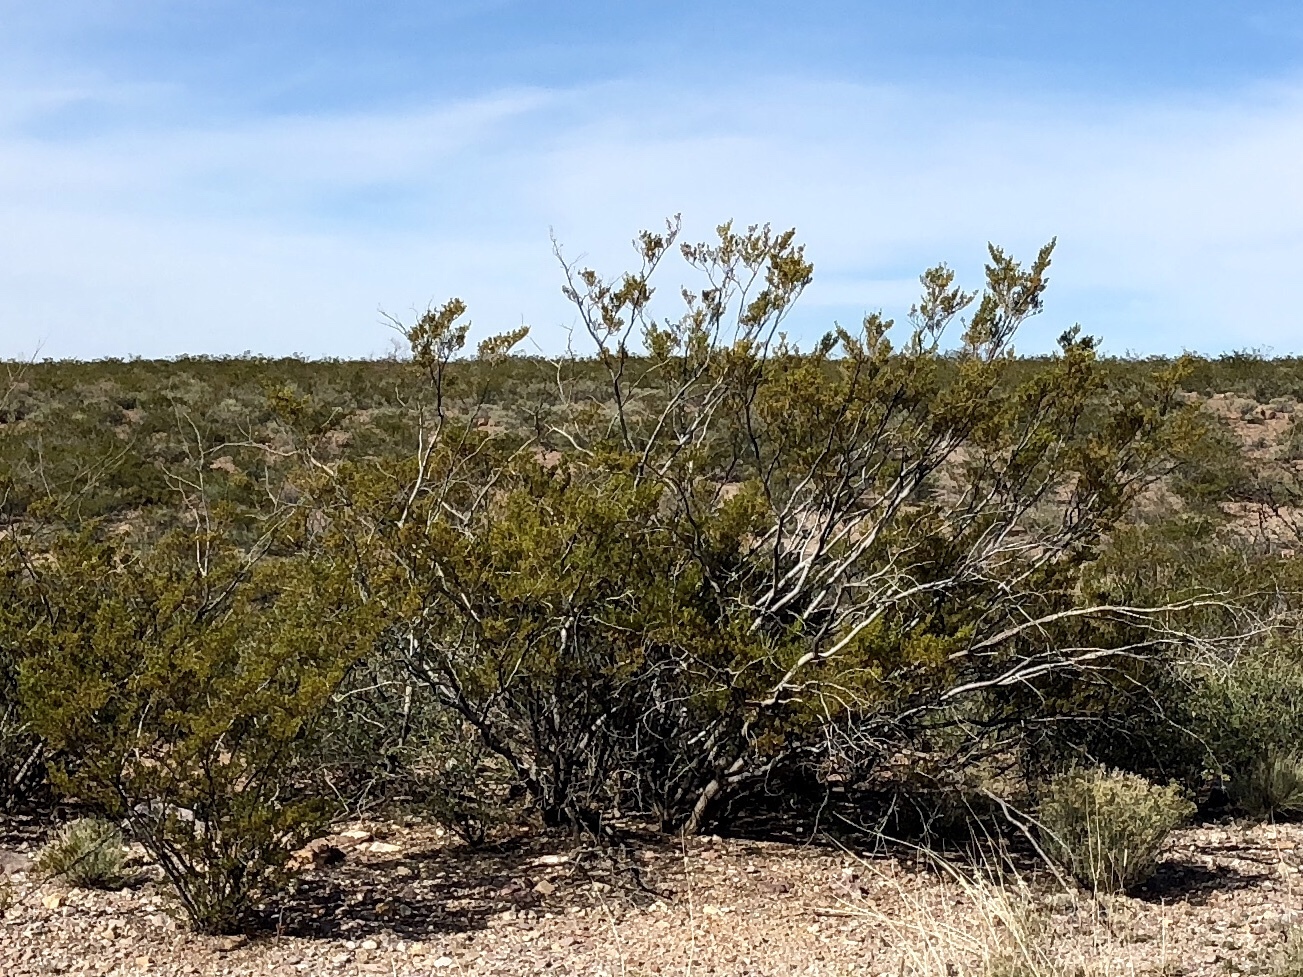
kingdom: Plantae
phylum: Tracheophyta
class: Magnoliopsida
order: Zygophyllales
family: Zygophyllaceae
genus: Larrea
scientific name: Larrea tridentata
